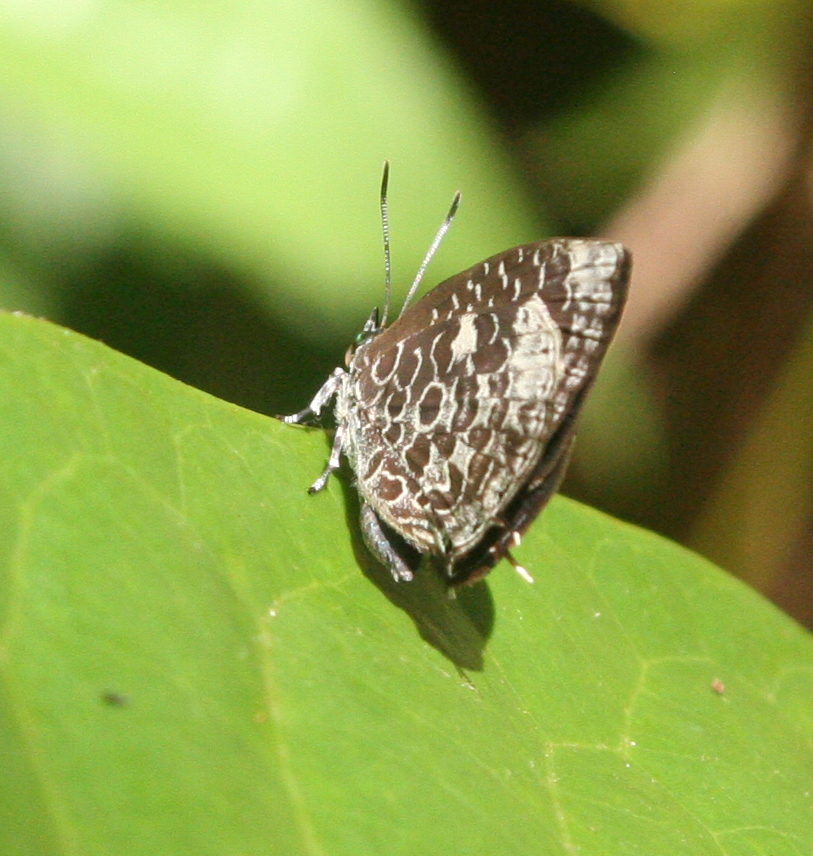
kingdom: Animalia
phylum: Arthropoda
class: Insecta
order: Lepidoptera
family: Lycaenidae
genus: Arhopala
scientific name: Arhopala ammonides
